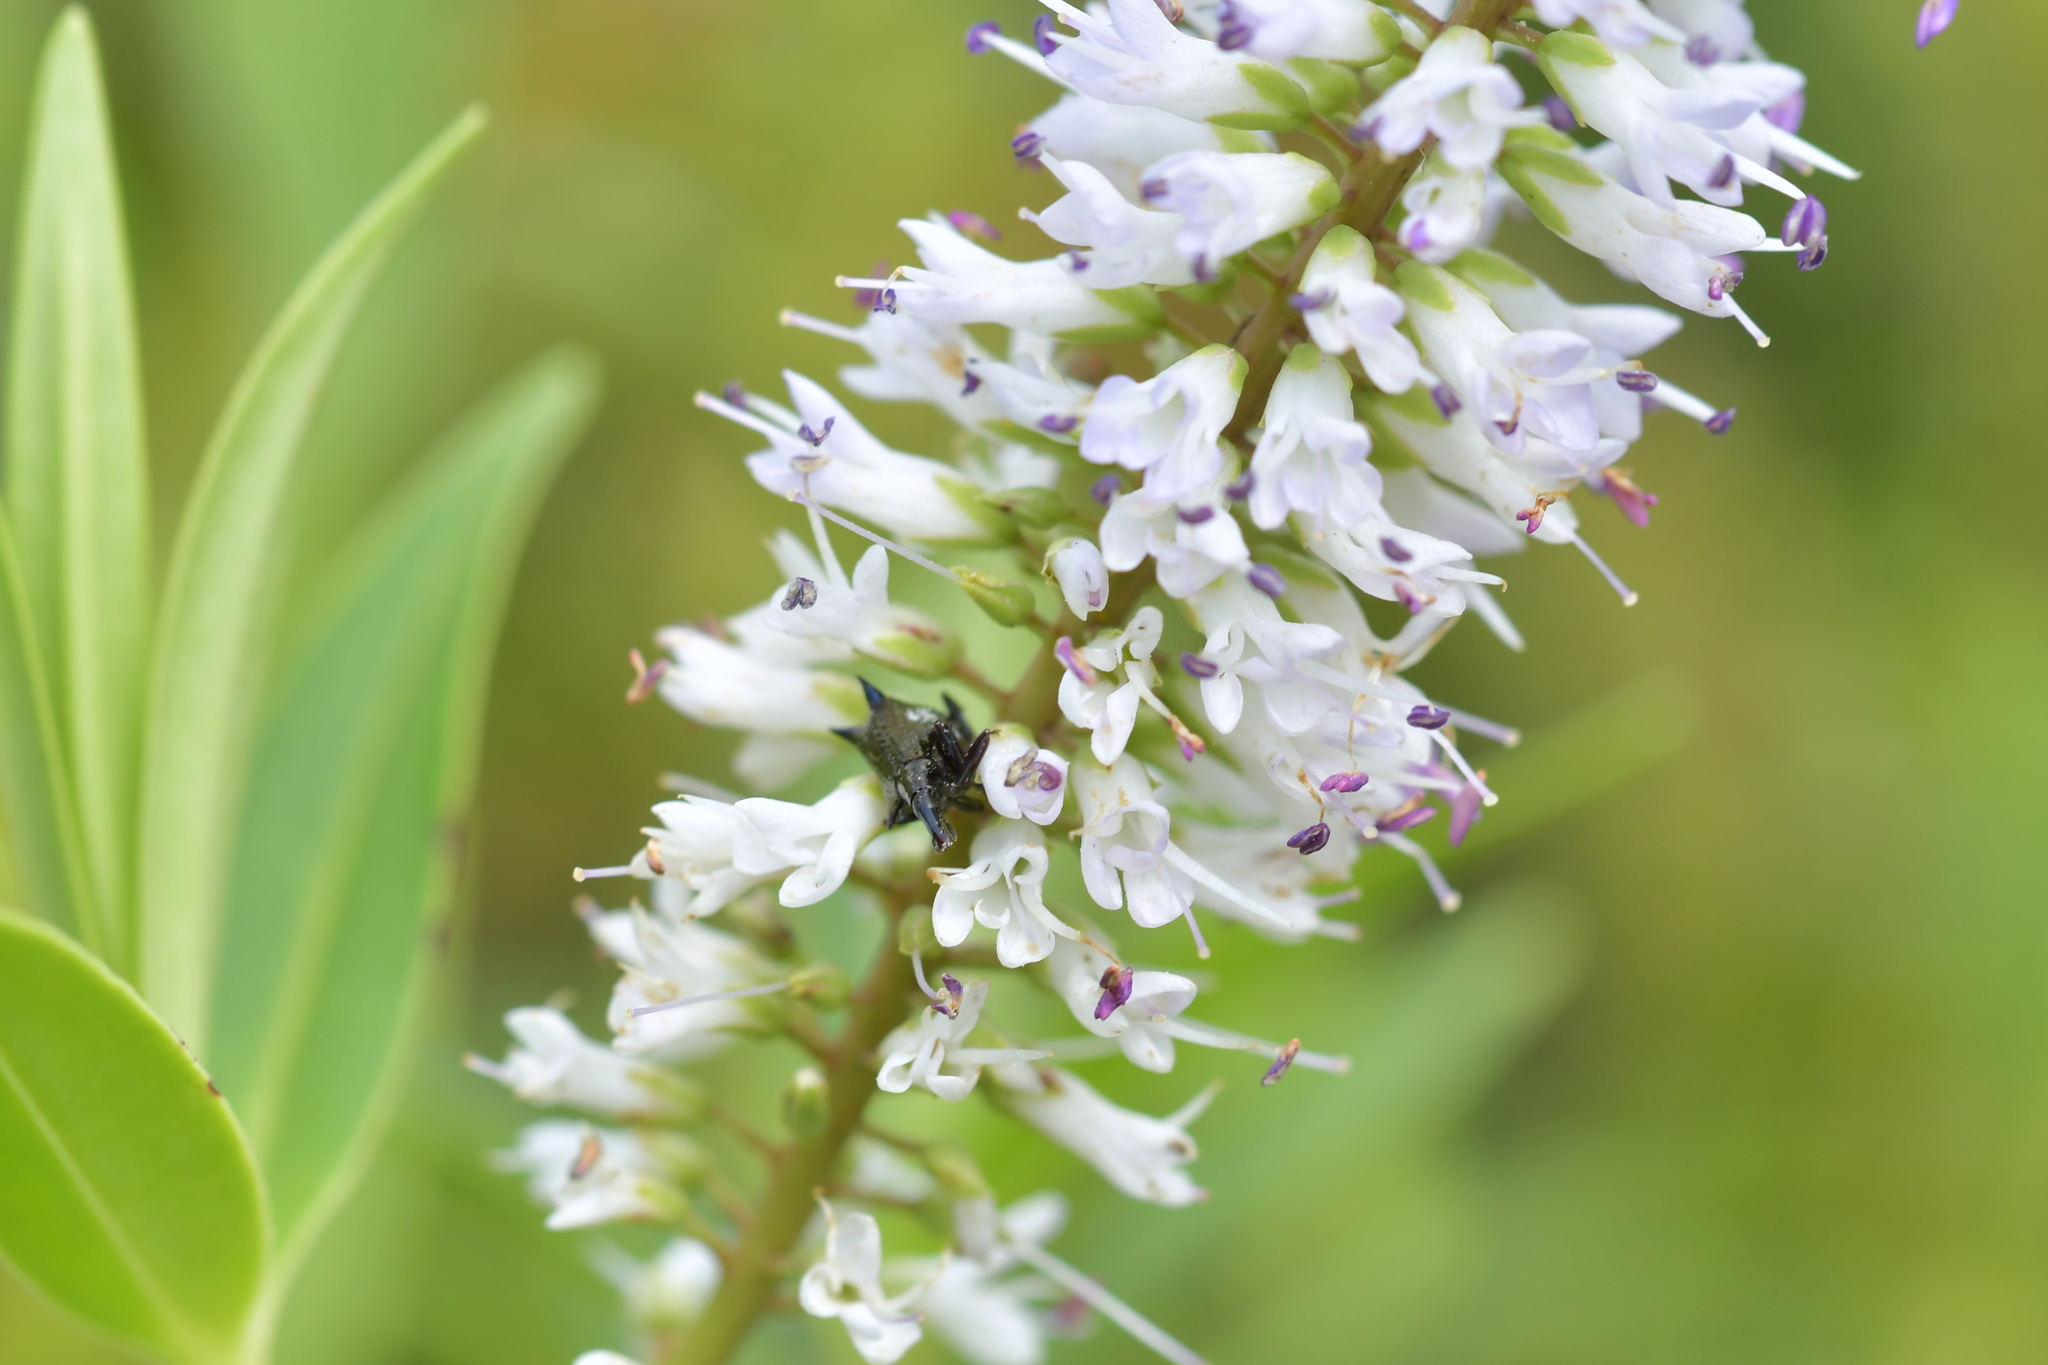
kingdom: Animalia
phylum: Arthropoda
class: Insecta
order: Coleoptera
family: Curculionidae
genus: Scolopterus
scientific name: Scolopterus aequus
